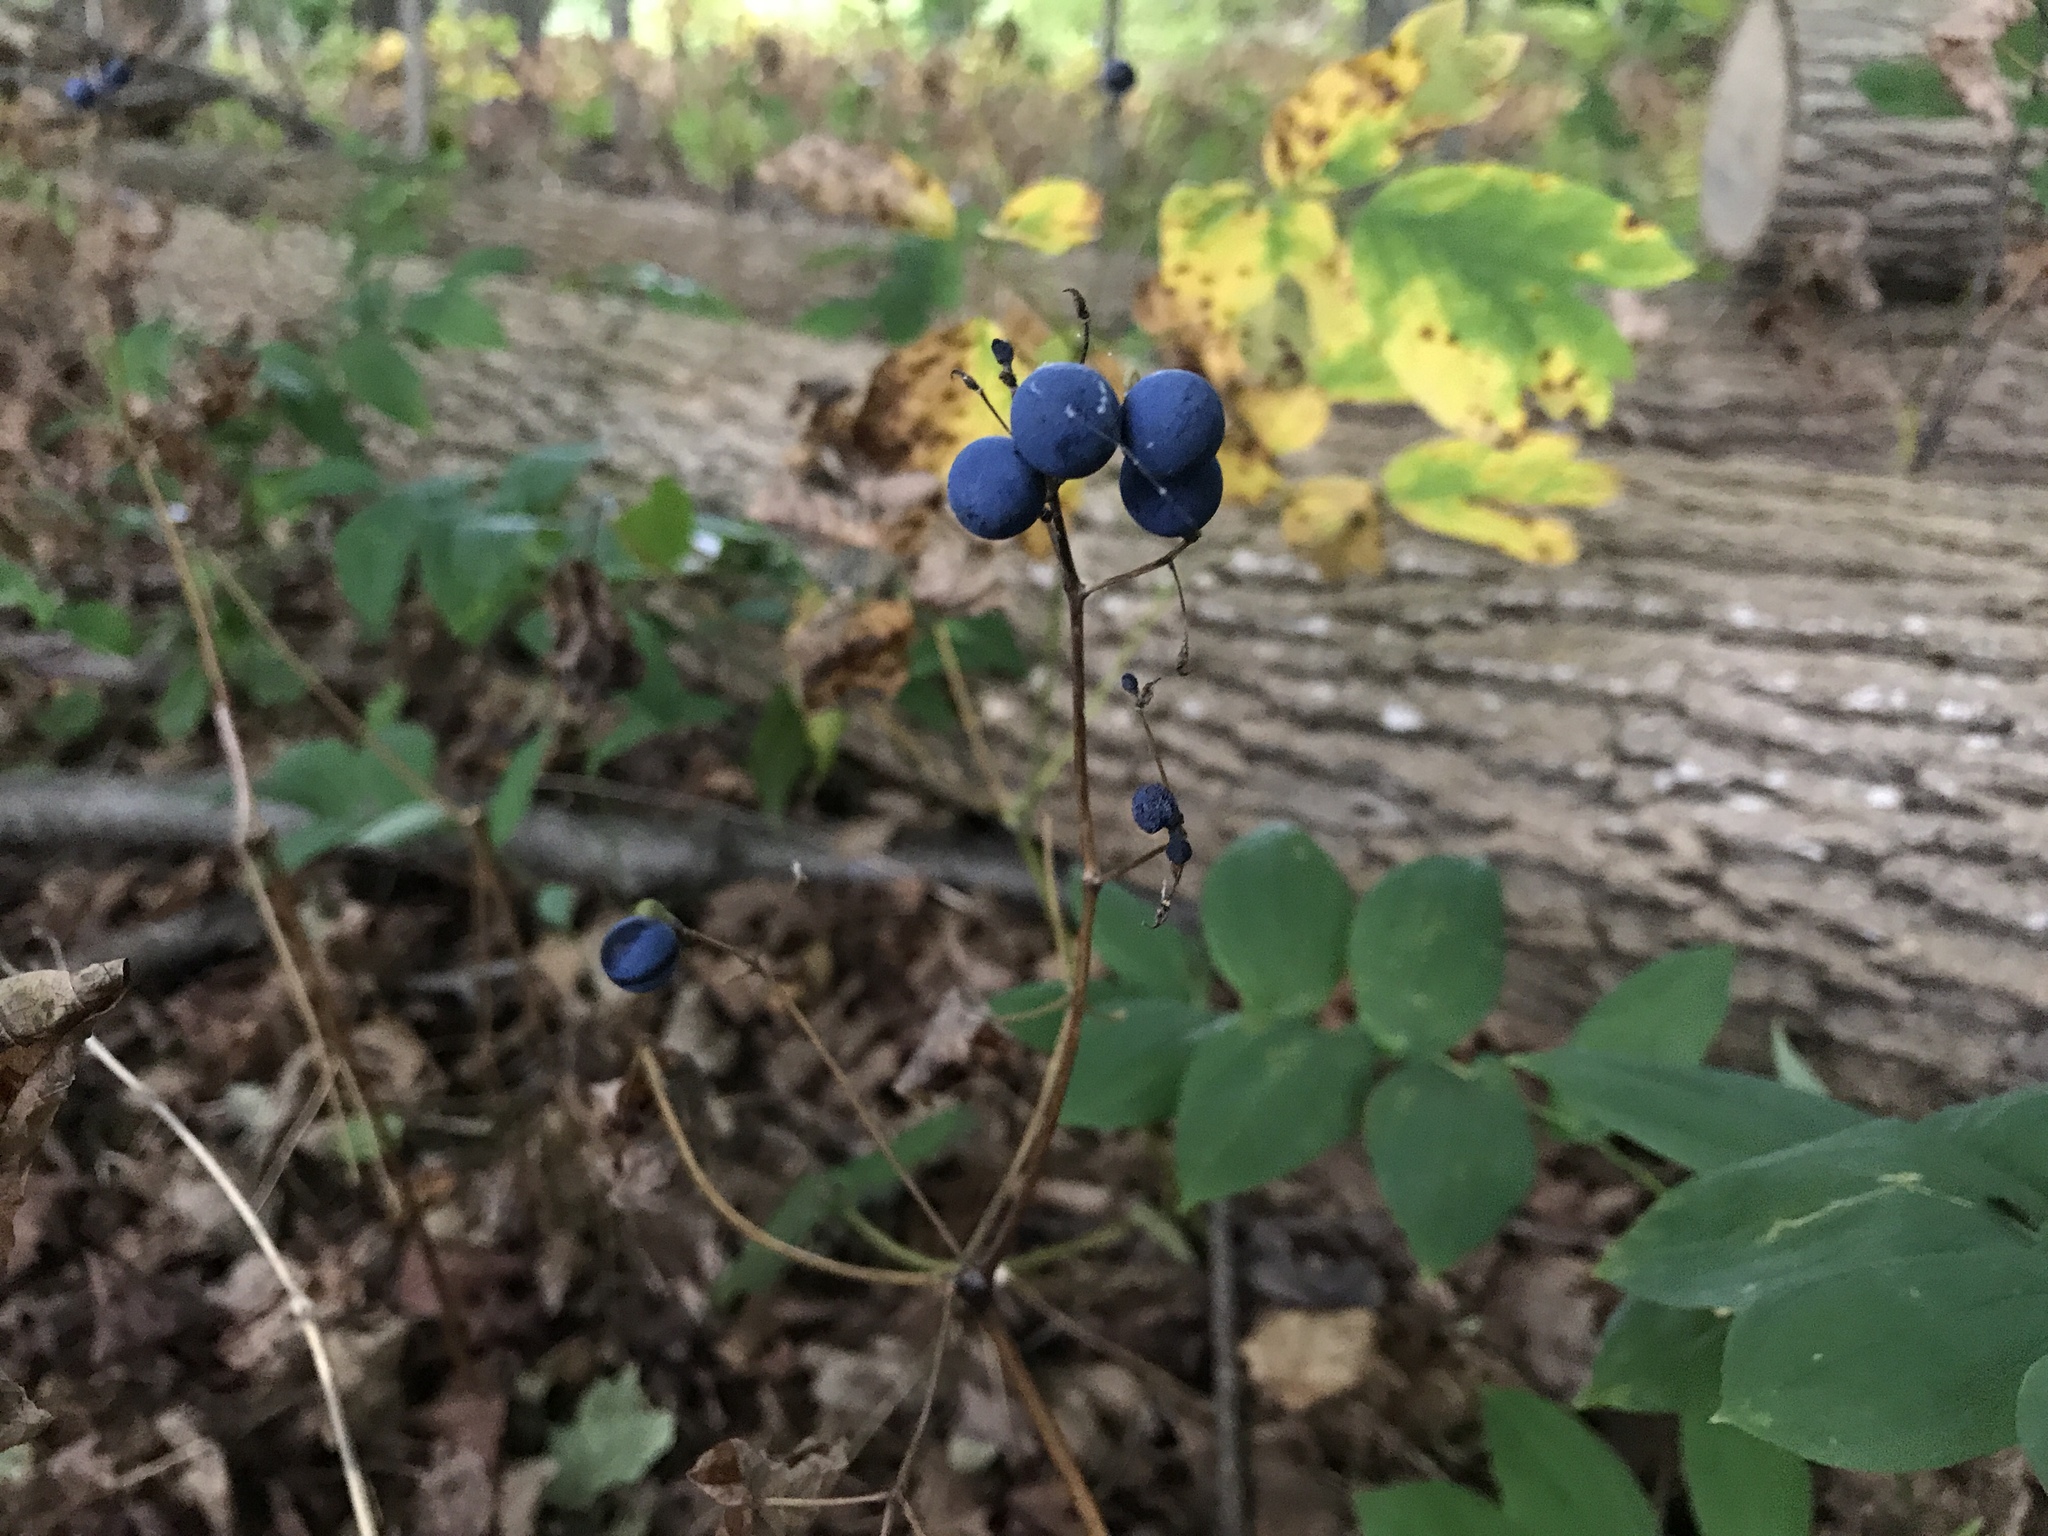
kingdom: Plantae
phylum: Tracheophyta
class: Magnoliopsida
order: Ranunculales
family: Berberidaceae
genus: Caulophyllum
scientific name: Caulophyllum thalictroides
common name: Blue cohosh
